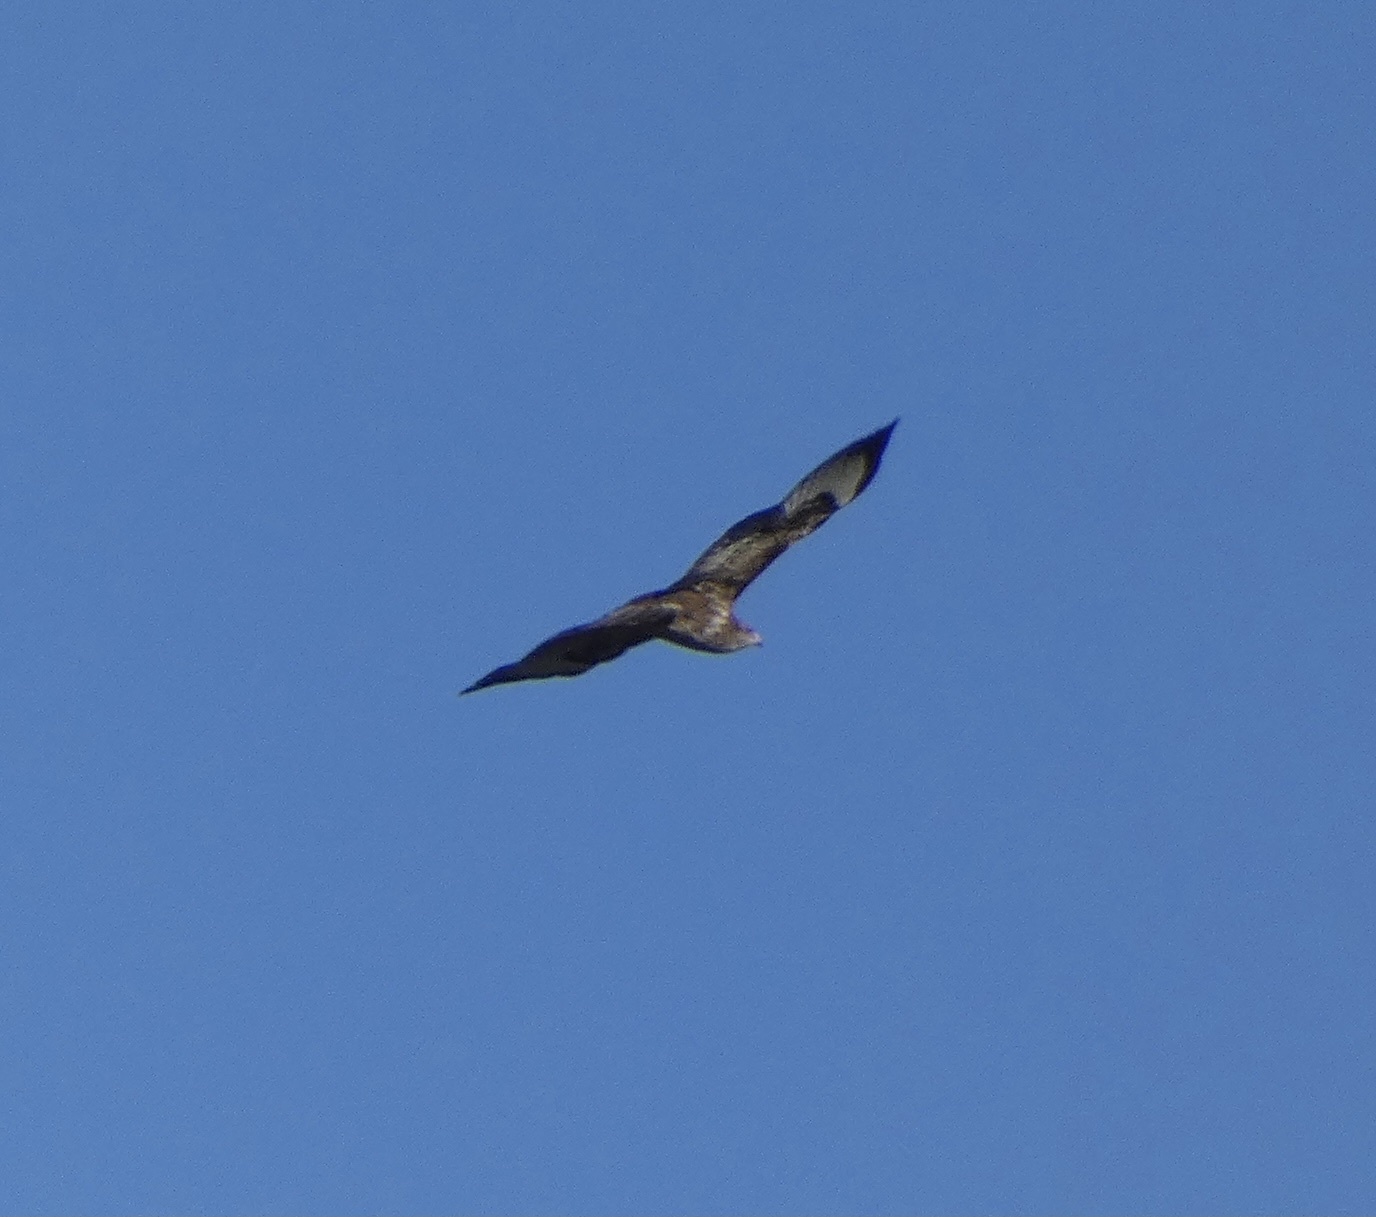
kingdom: Animalia
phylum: Chordata
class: Aves
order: Accipitriformes
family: Accipitridae
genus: Buteo
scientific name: Buteo buteo
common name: Common buzzard
